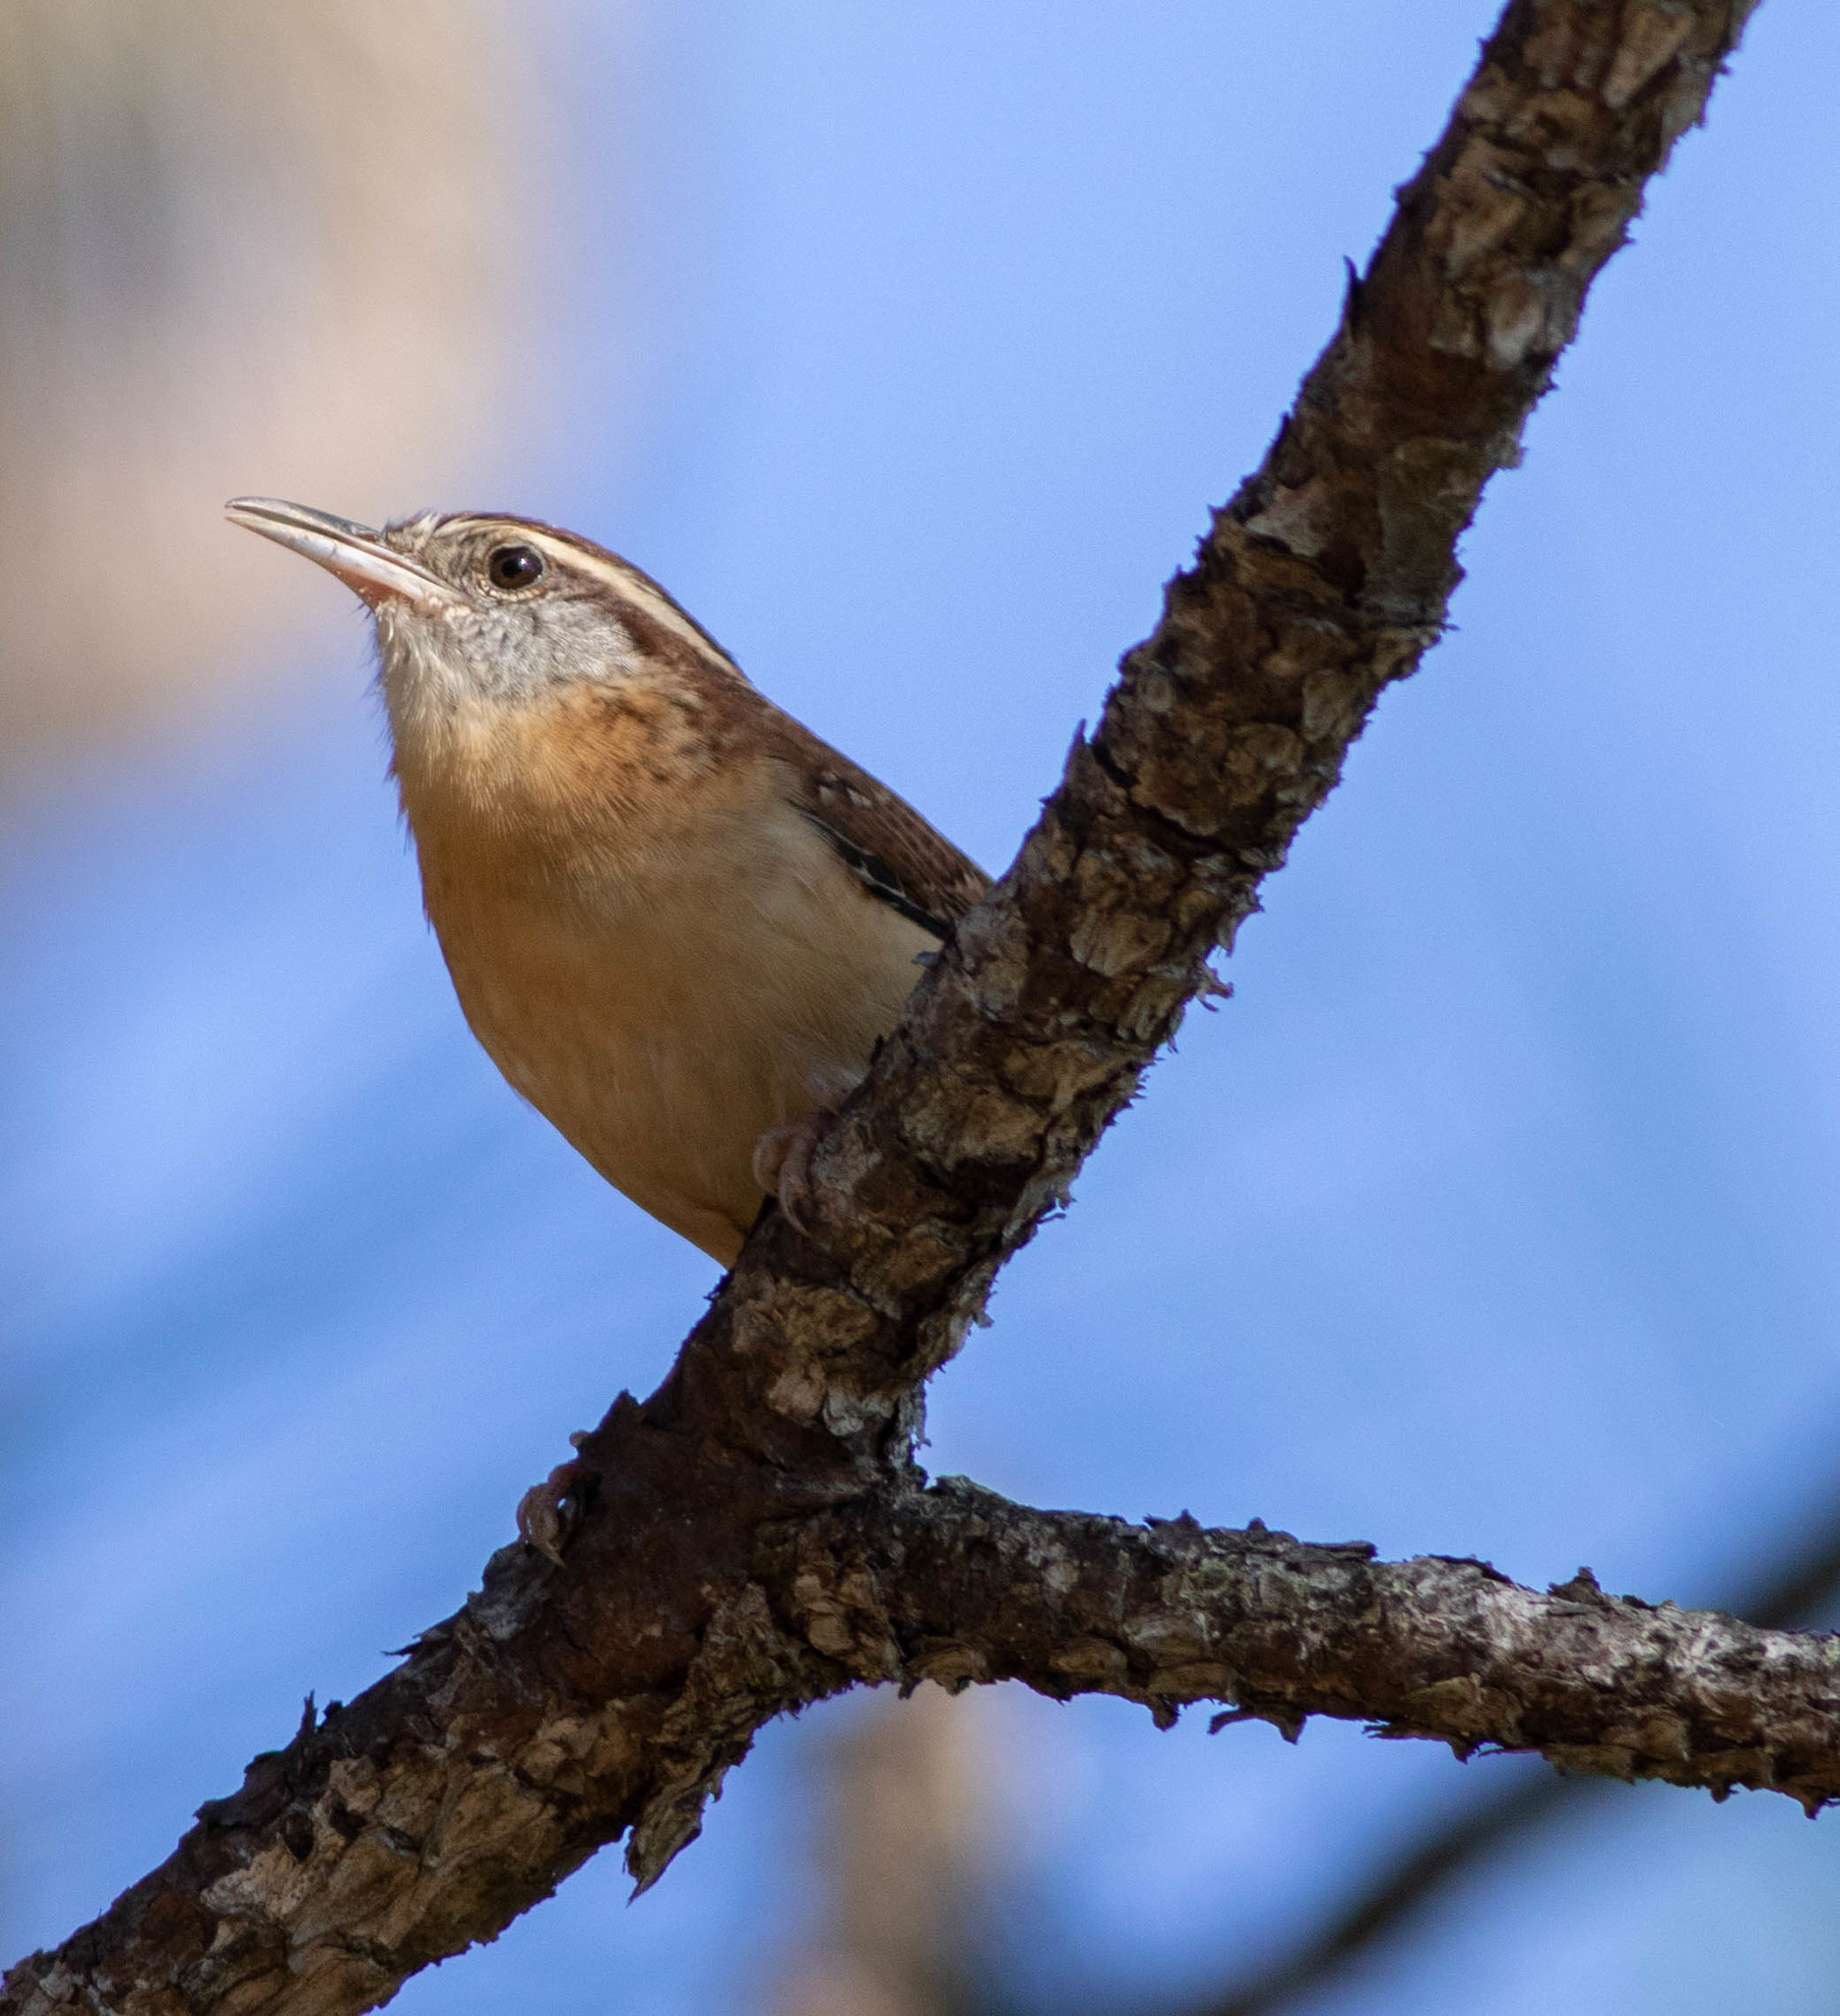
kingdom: Animalia
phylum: Chordata
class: Aves
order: Passeriformes
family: Troglodytidae
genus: Thryothorus
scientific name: Thryothorus ludovicianus
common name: Carolina wren
